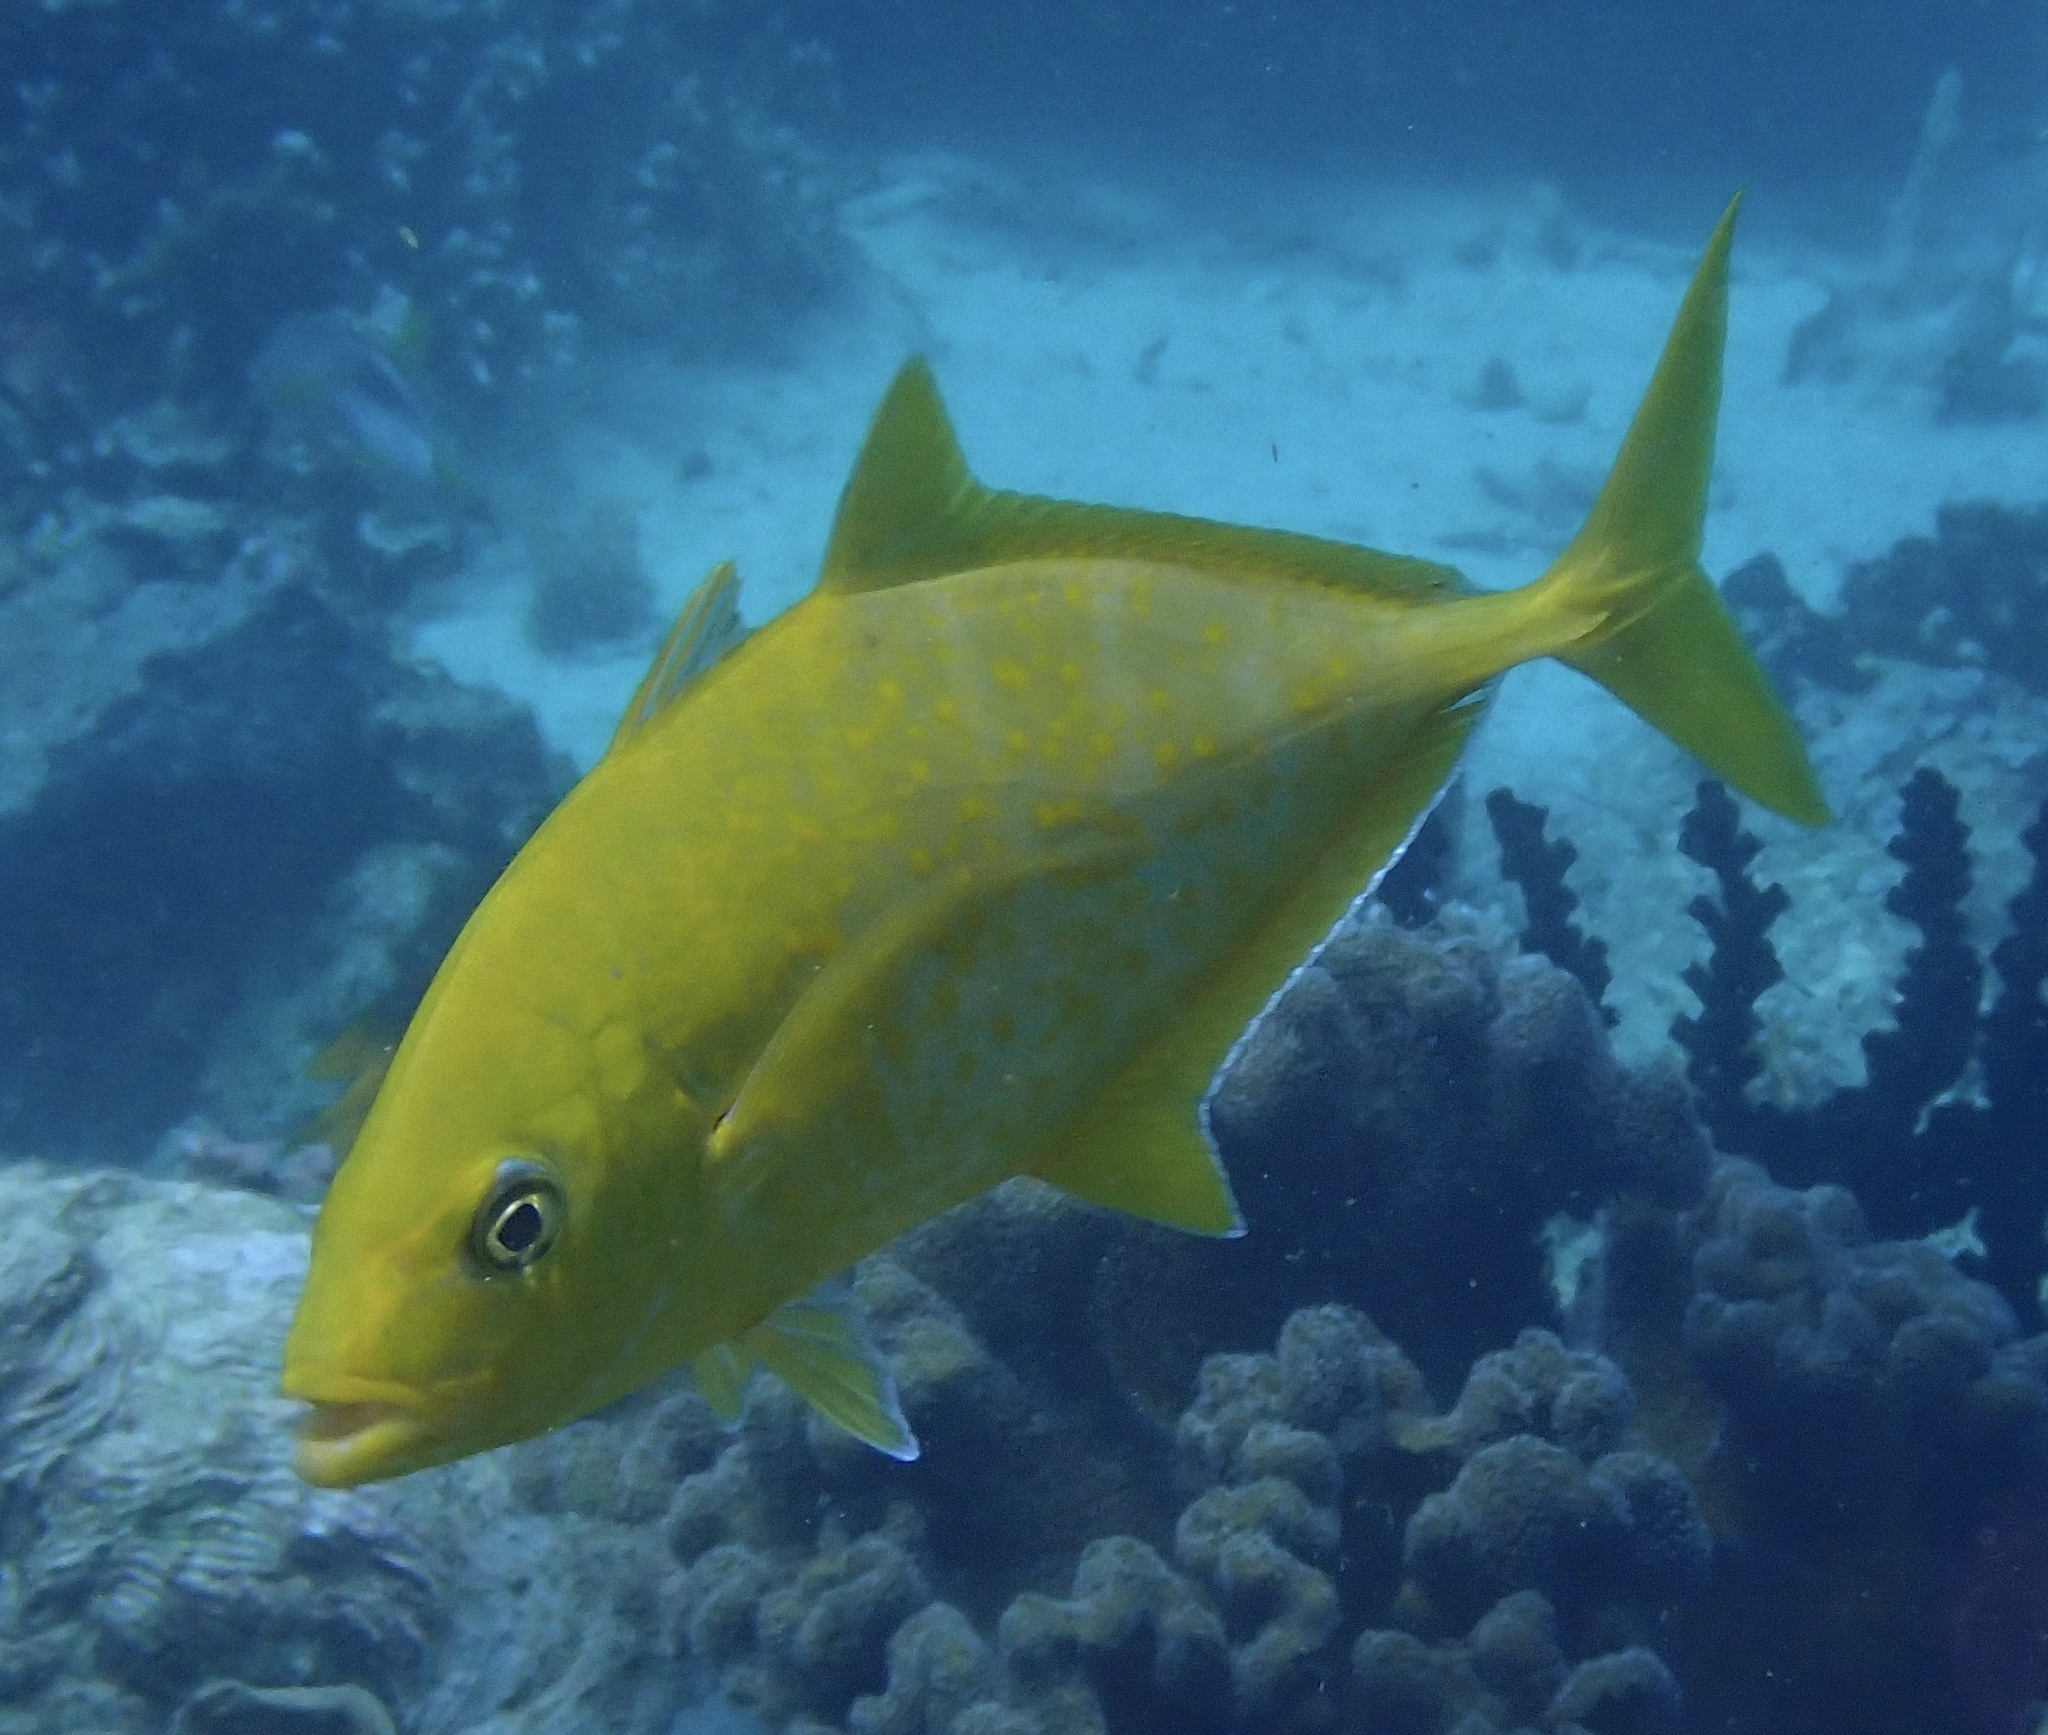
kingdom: Animalia
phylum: Chordata
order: Perciformes
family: Carangidae
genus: Flavocaranx
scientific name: Flavocaranx bajad
